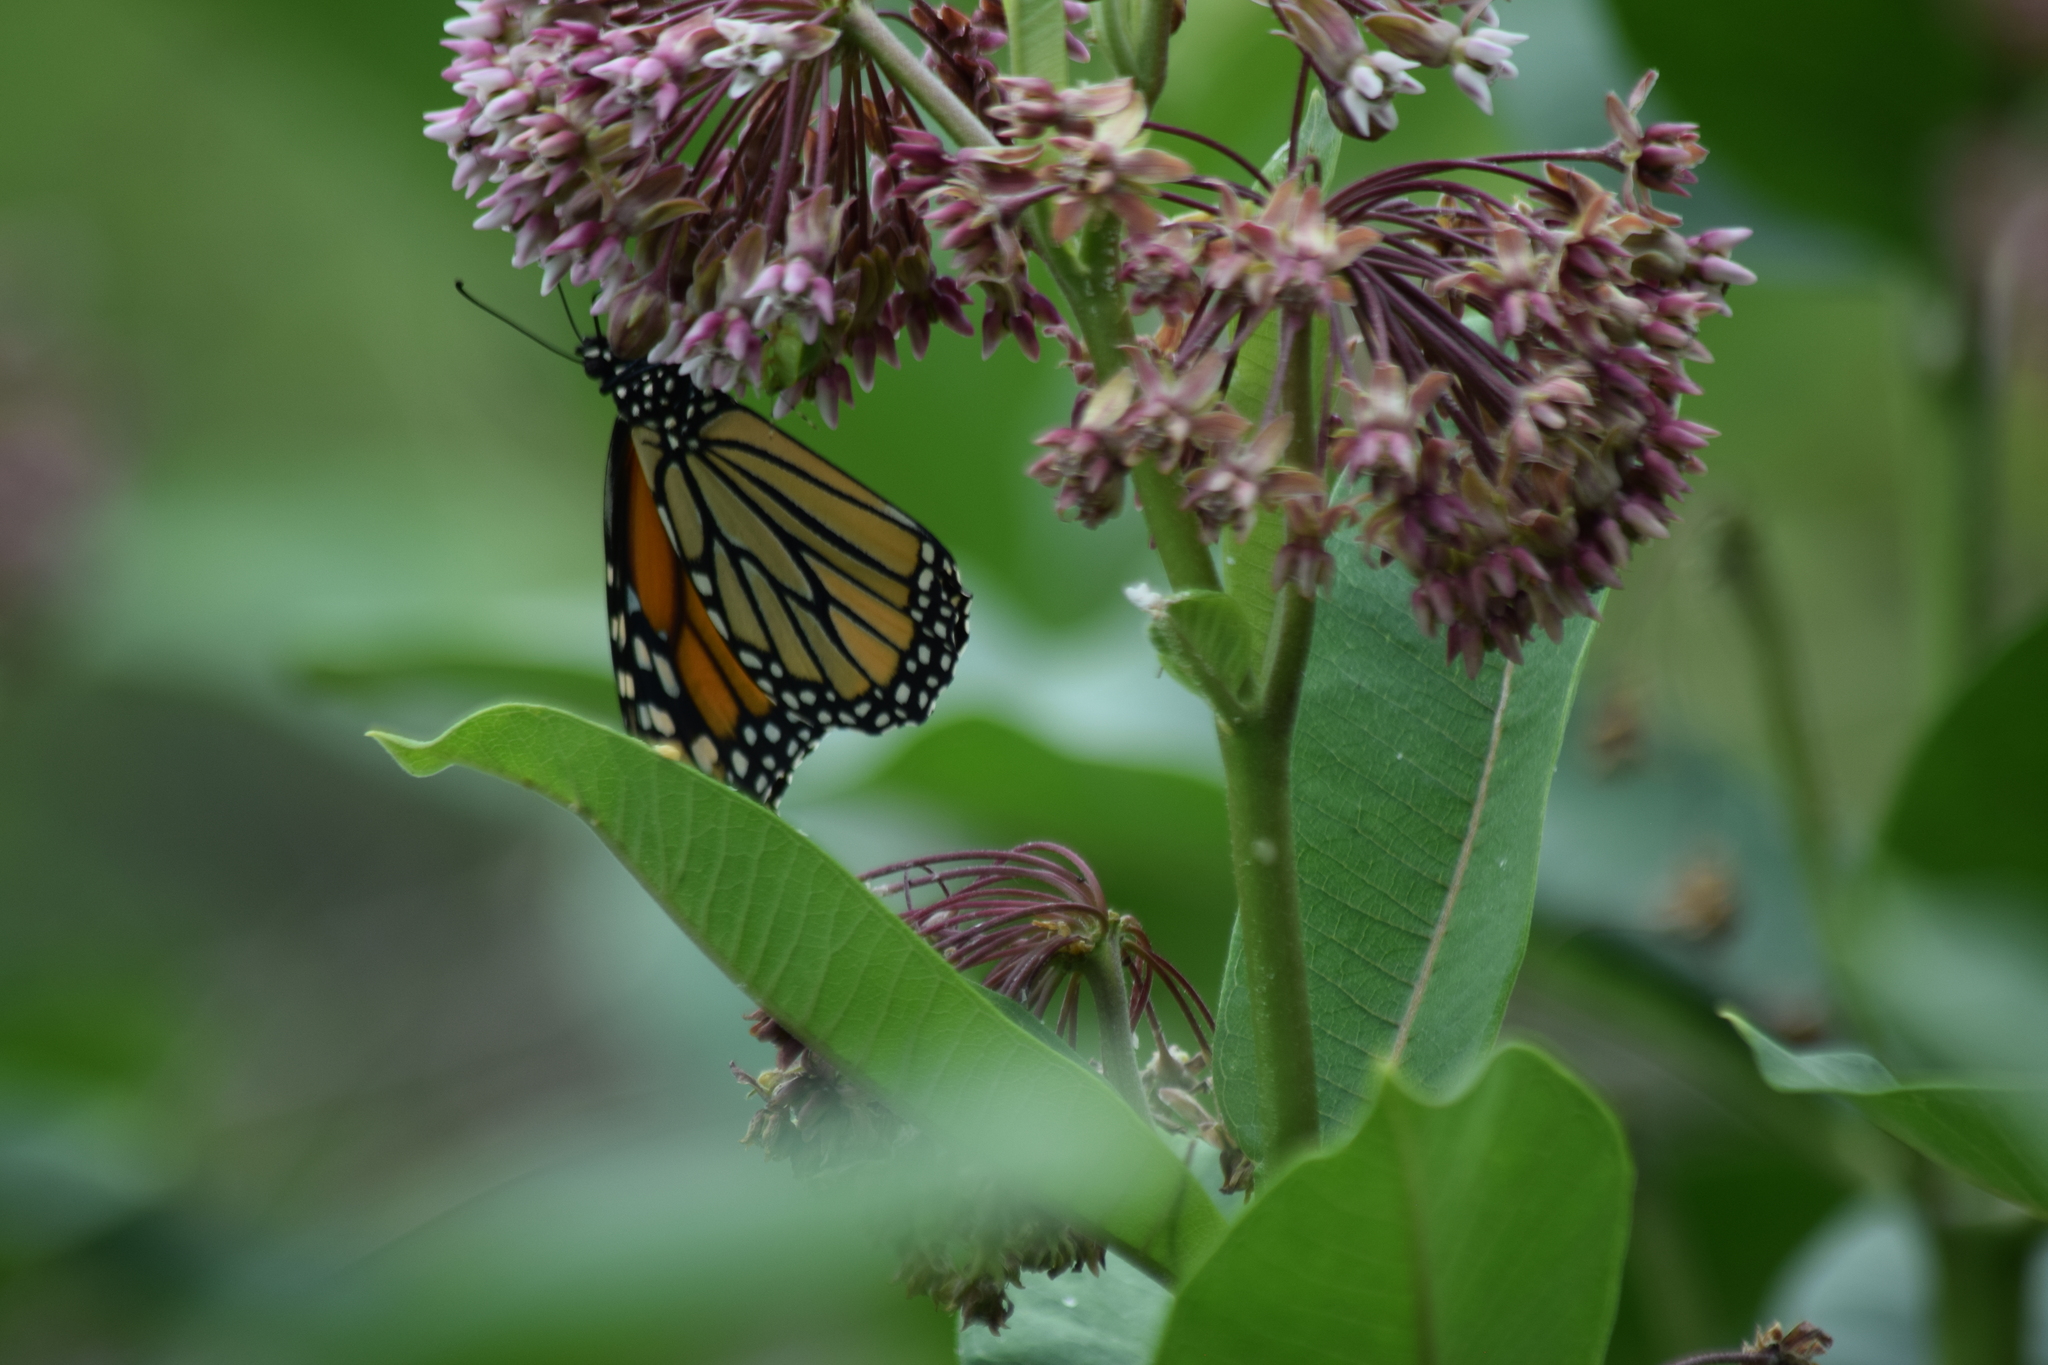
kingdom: Animalia
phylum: Arthropoda
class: Insecta
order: Lepidoptera
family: Nymphalidae
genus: Danaus
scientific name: Danaus plexippus
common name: Monarch
